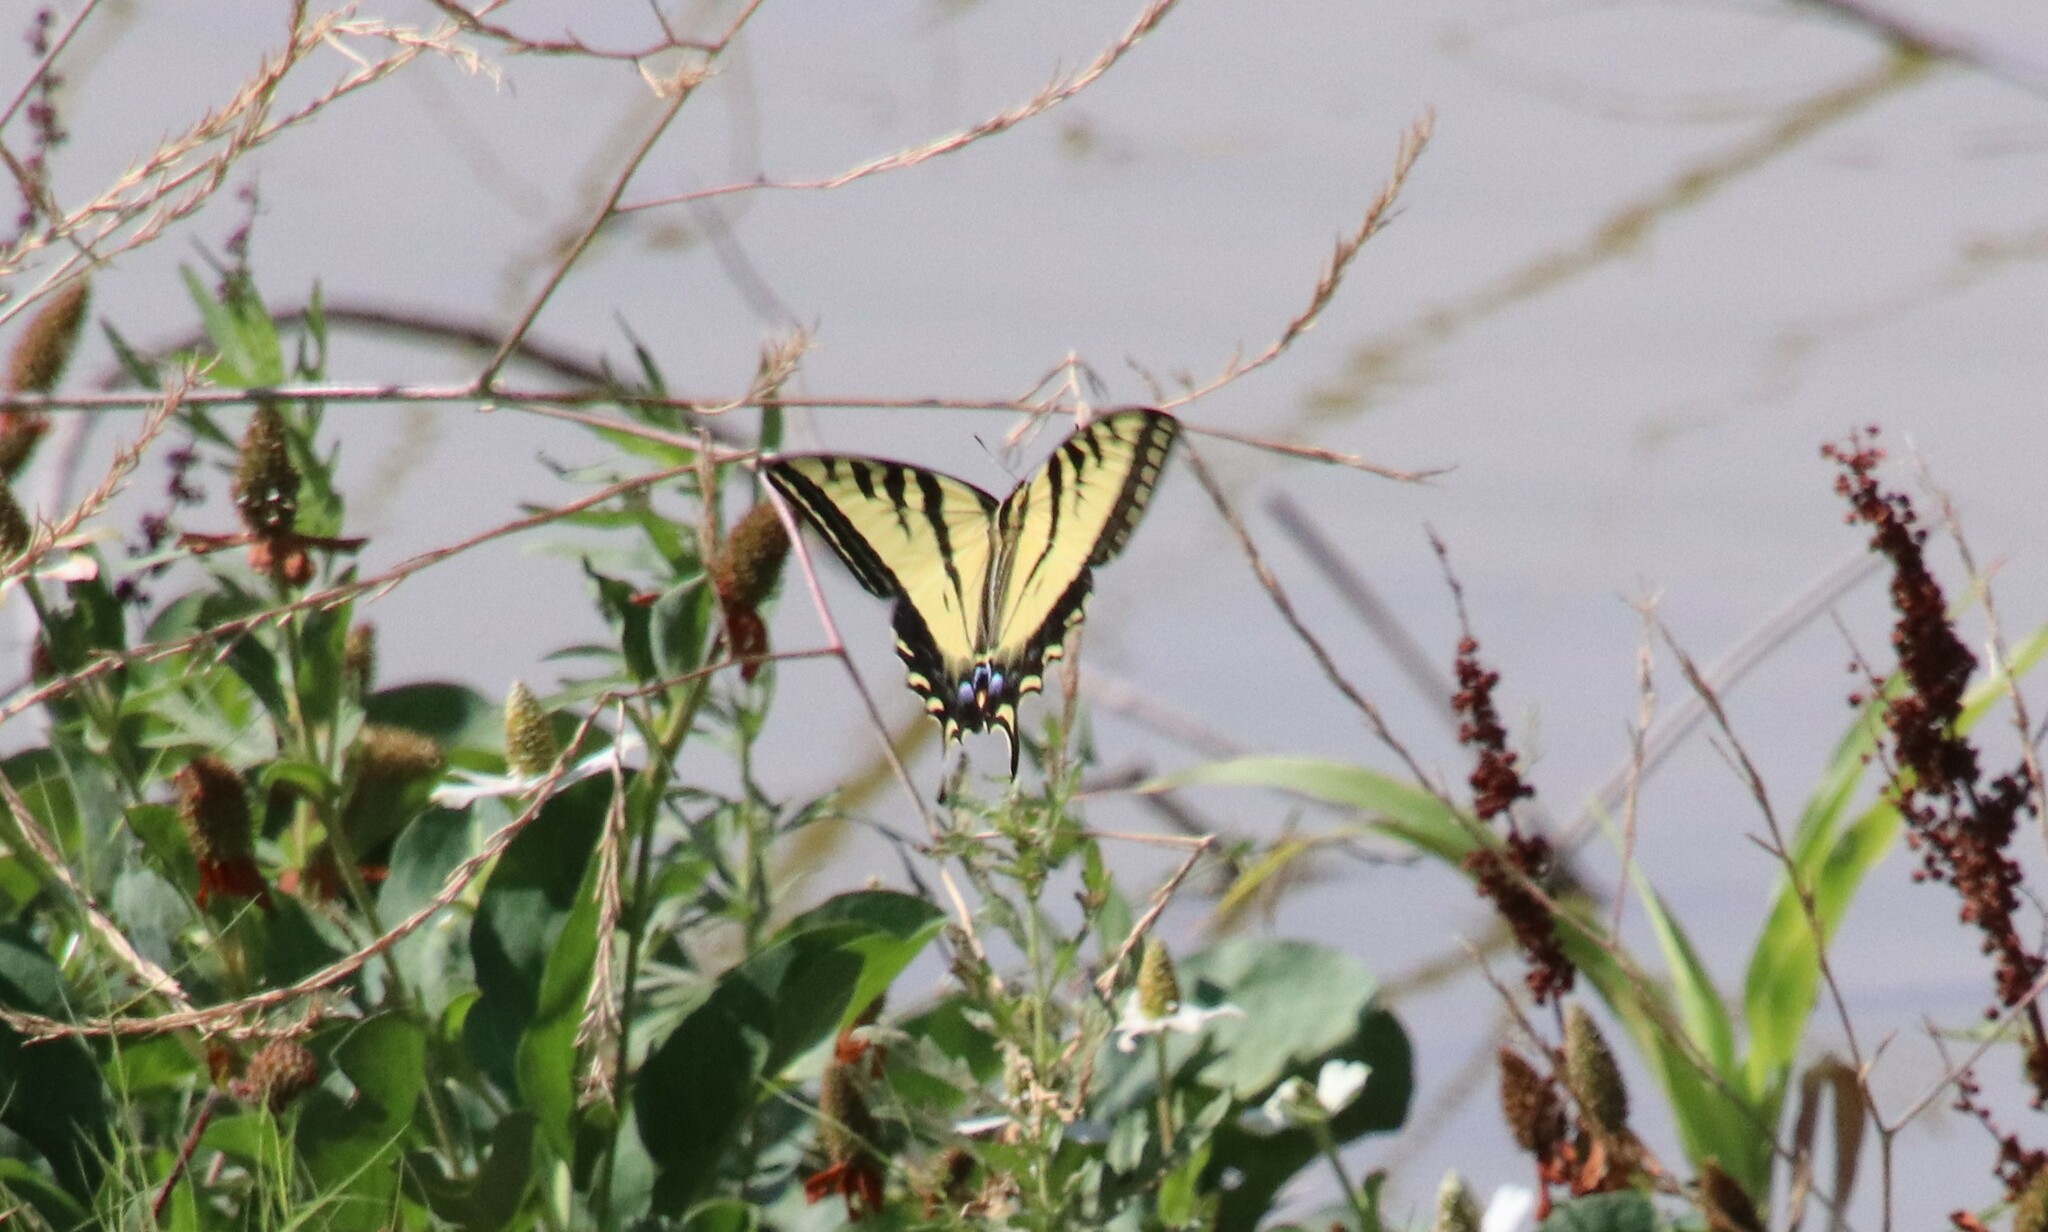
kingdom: Animalia
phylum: Arthropoda
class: Insecta
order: Lepidoptera
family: Papilionidae
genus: Papilio
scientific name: Papilio rutulus
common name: Western tiger swallowtail
